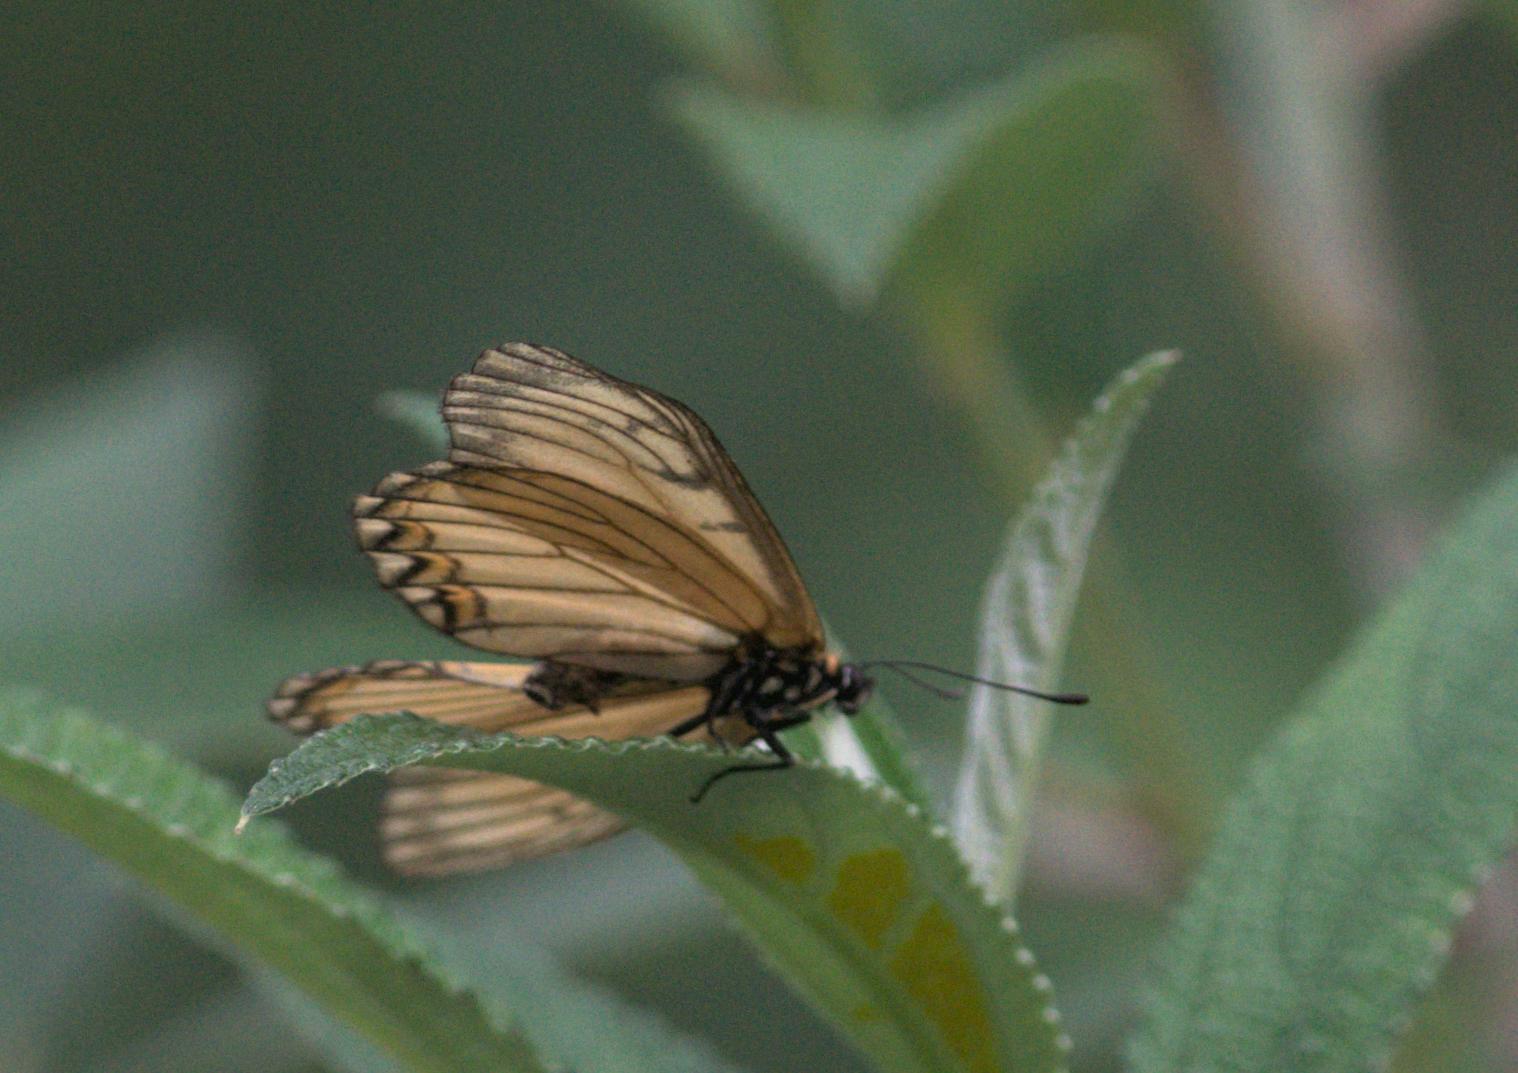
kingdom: Animalia
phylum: Arthropoda
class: Insecta
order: Lepidoptera
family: Nymphalidae
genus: Acraea
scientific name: Acraea Telchinia issoria
